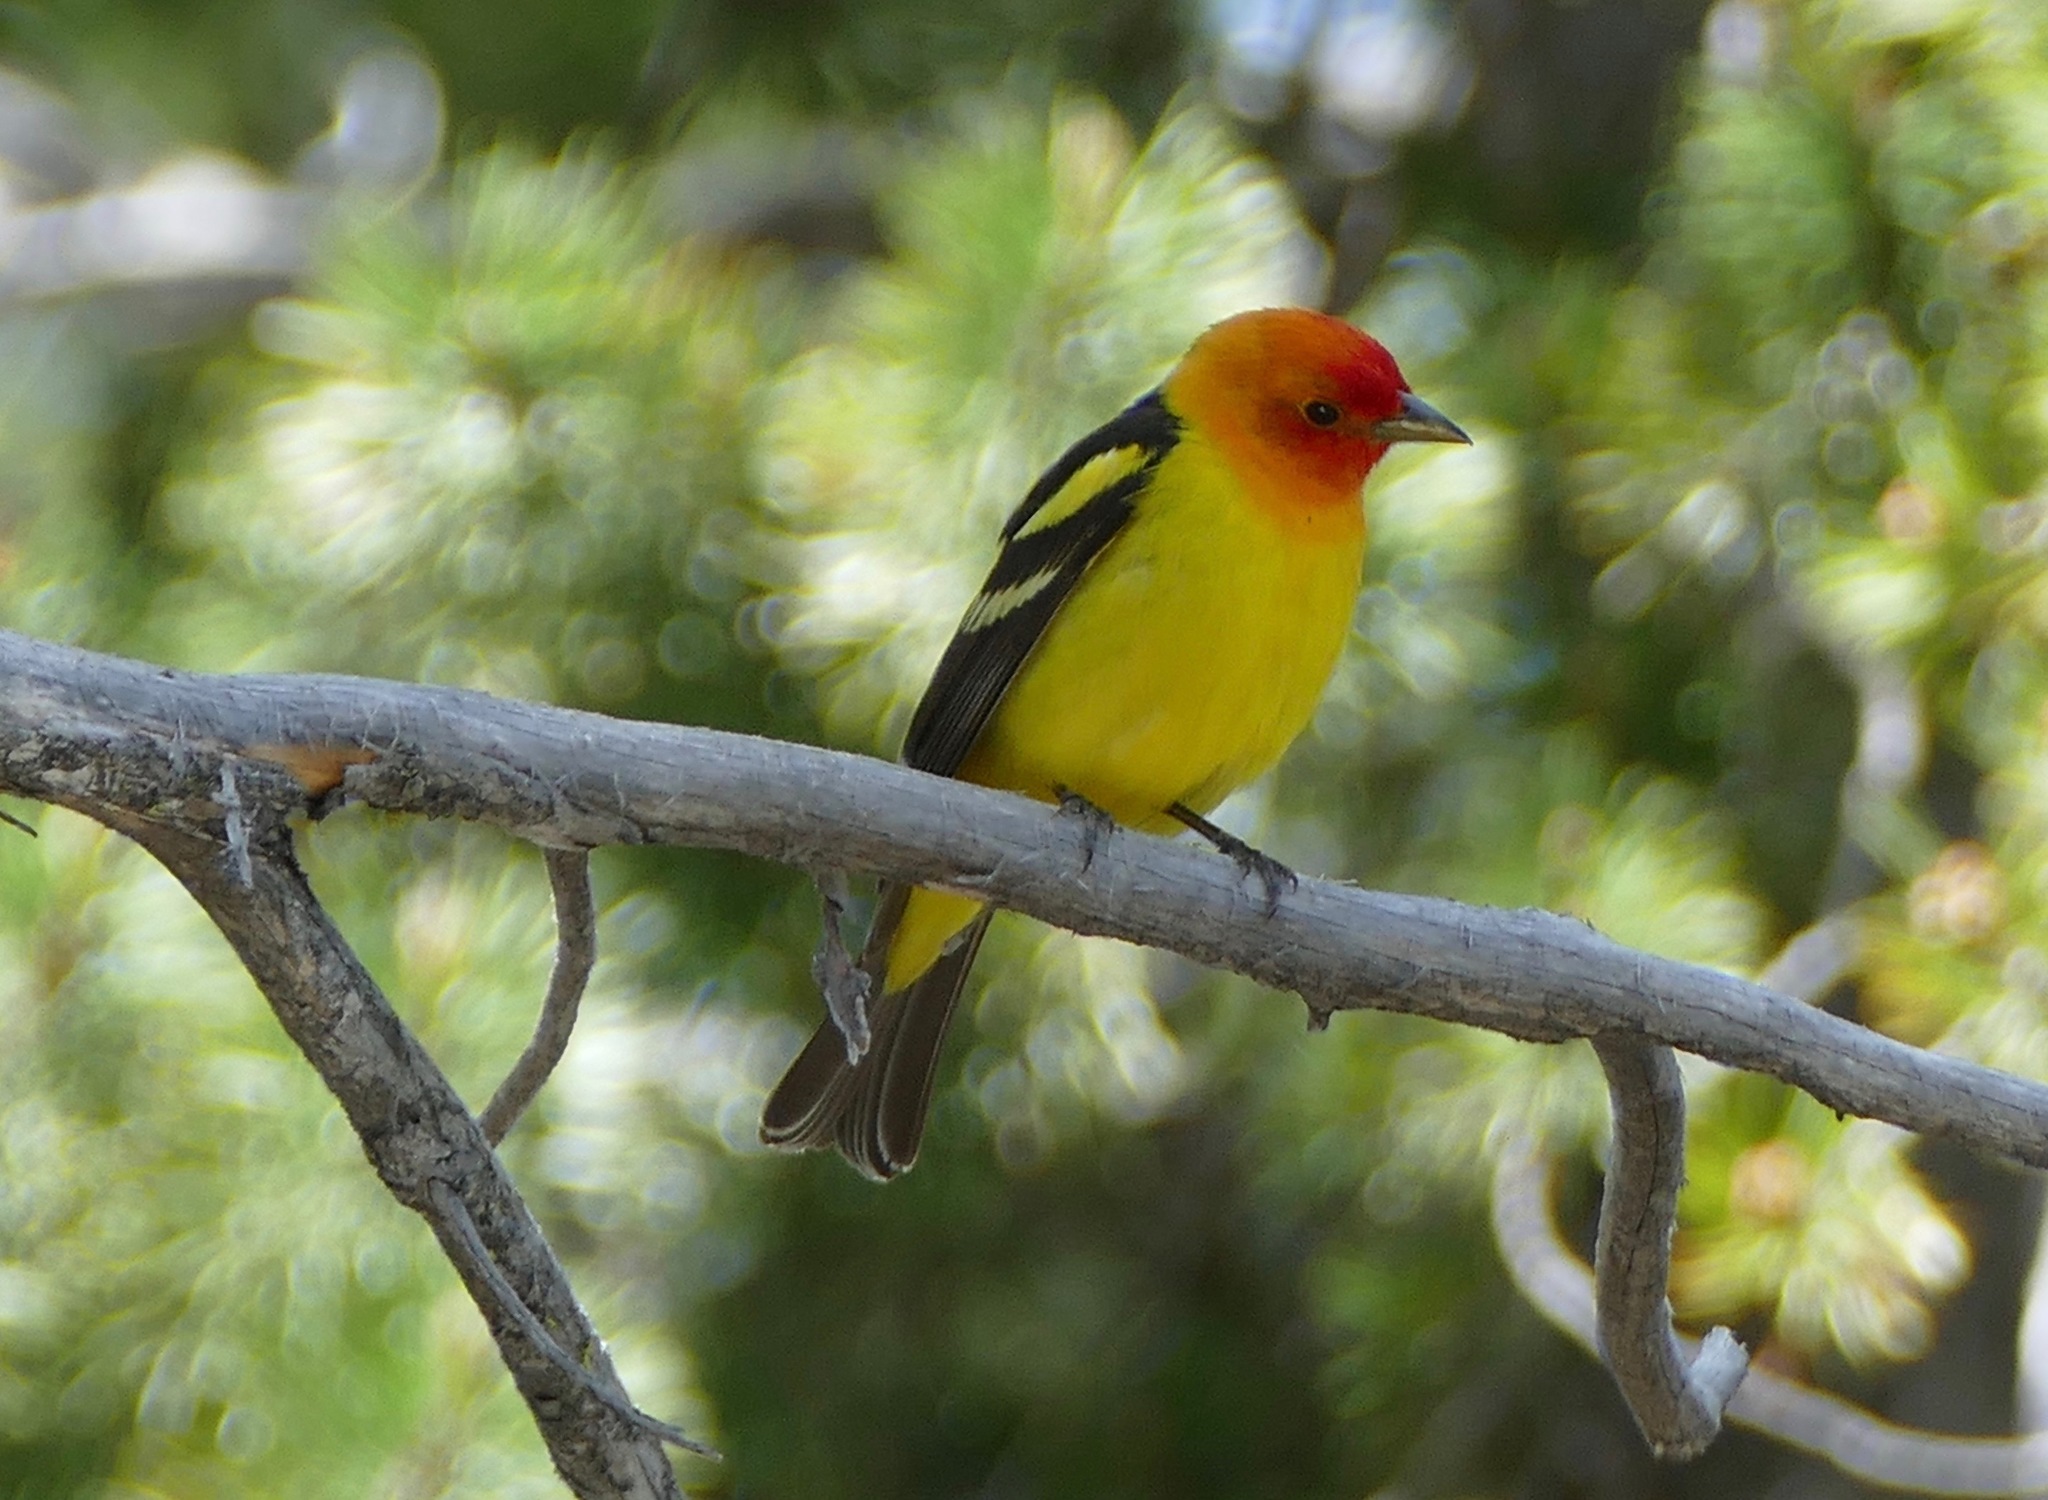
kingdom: Animalia
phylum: Chordata
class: Aves
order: Passeriformes
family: Cardinalidae
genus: Piranga
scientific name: Piranga ludoviciana
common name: Western tanager
